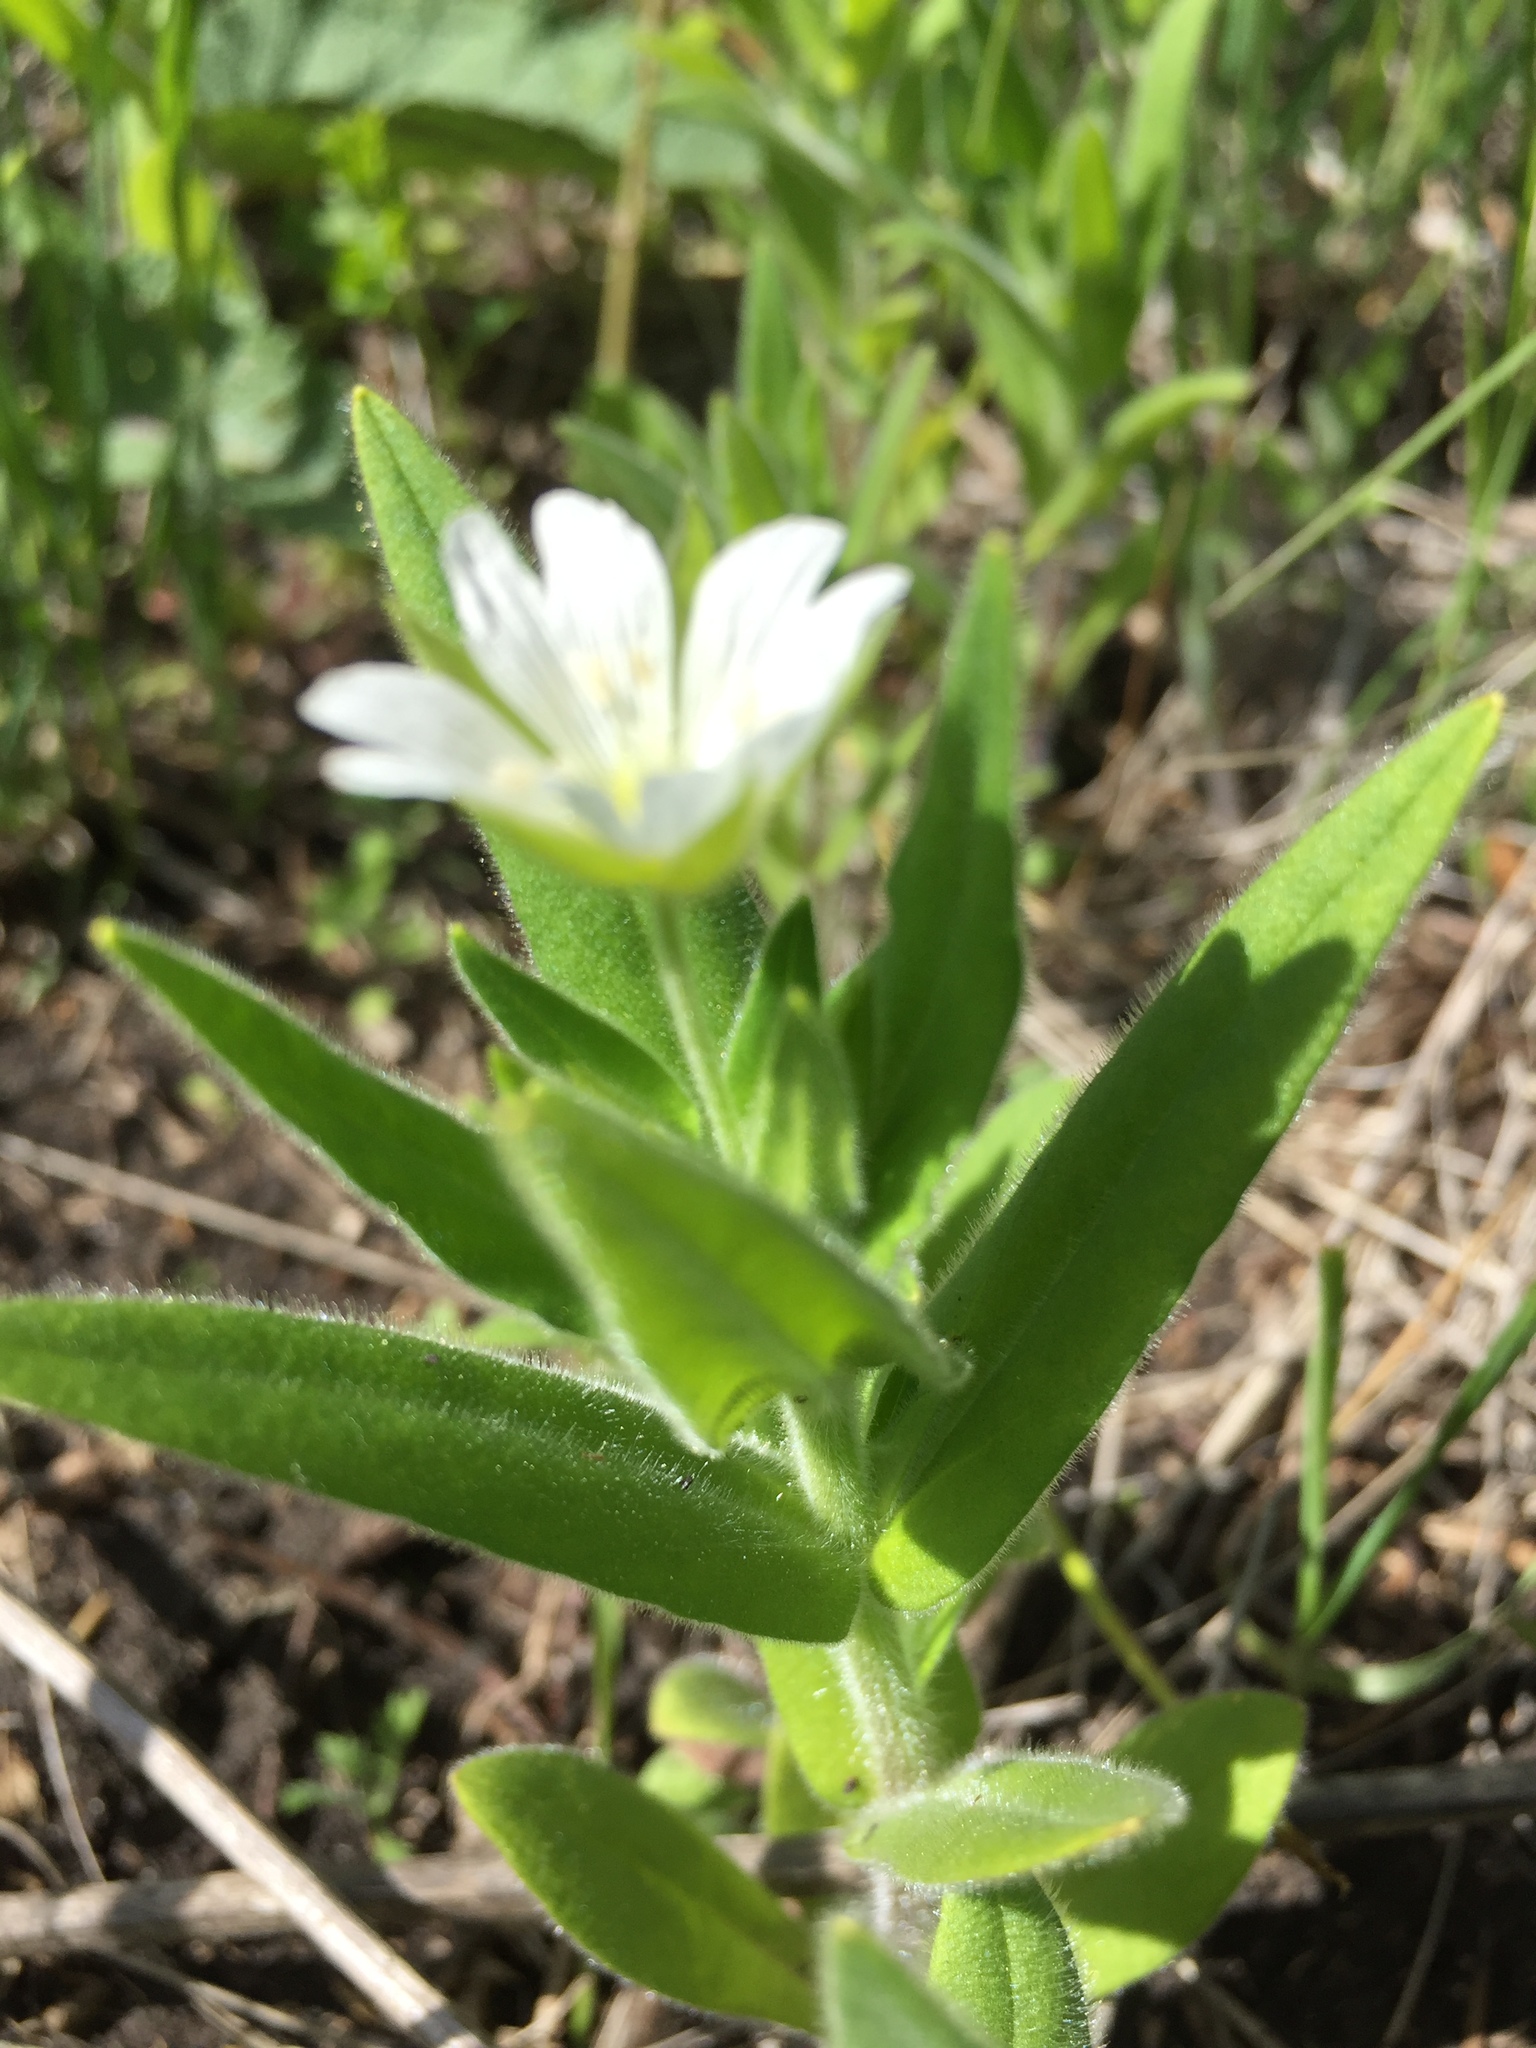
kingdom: Plantae
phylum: Tracheophyta
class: Magnoliopsida
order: Caryophyllales
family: Caryophyllaceae
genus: Cerastium
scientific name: Cerastium nemorale
